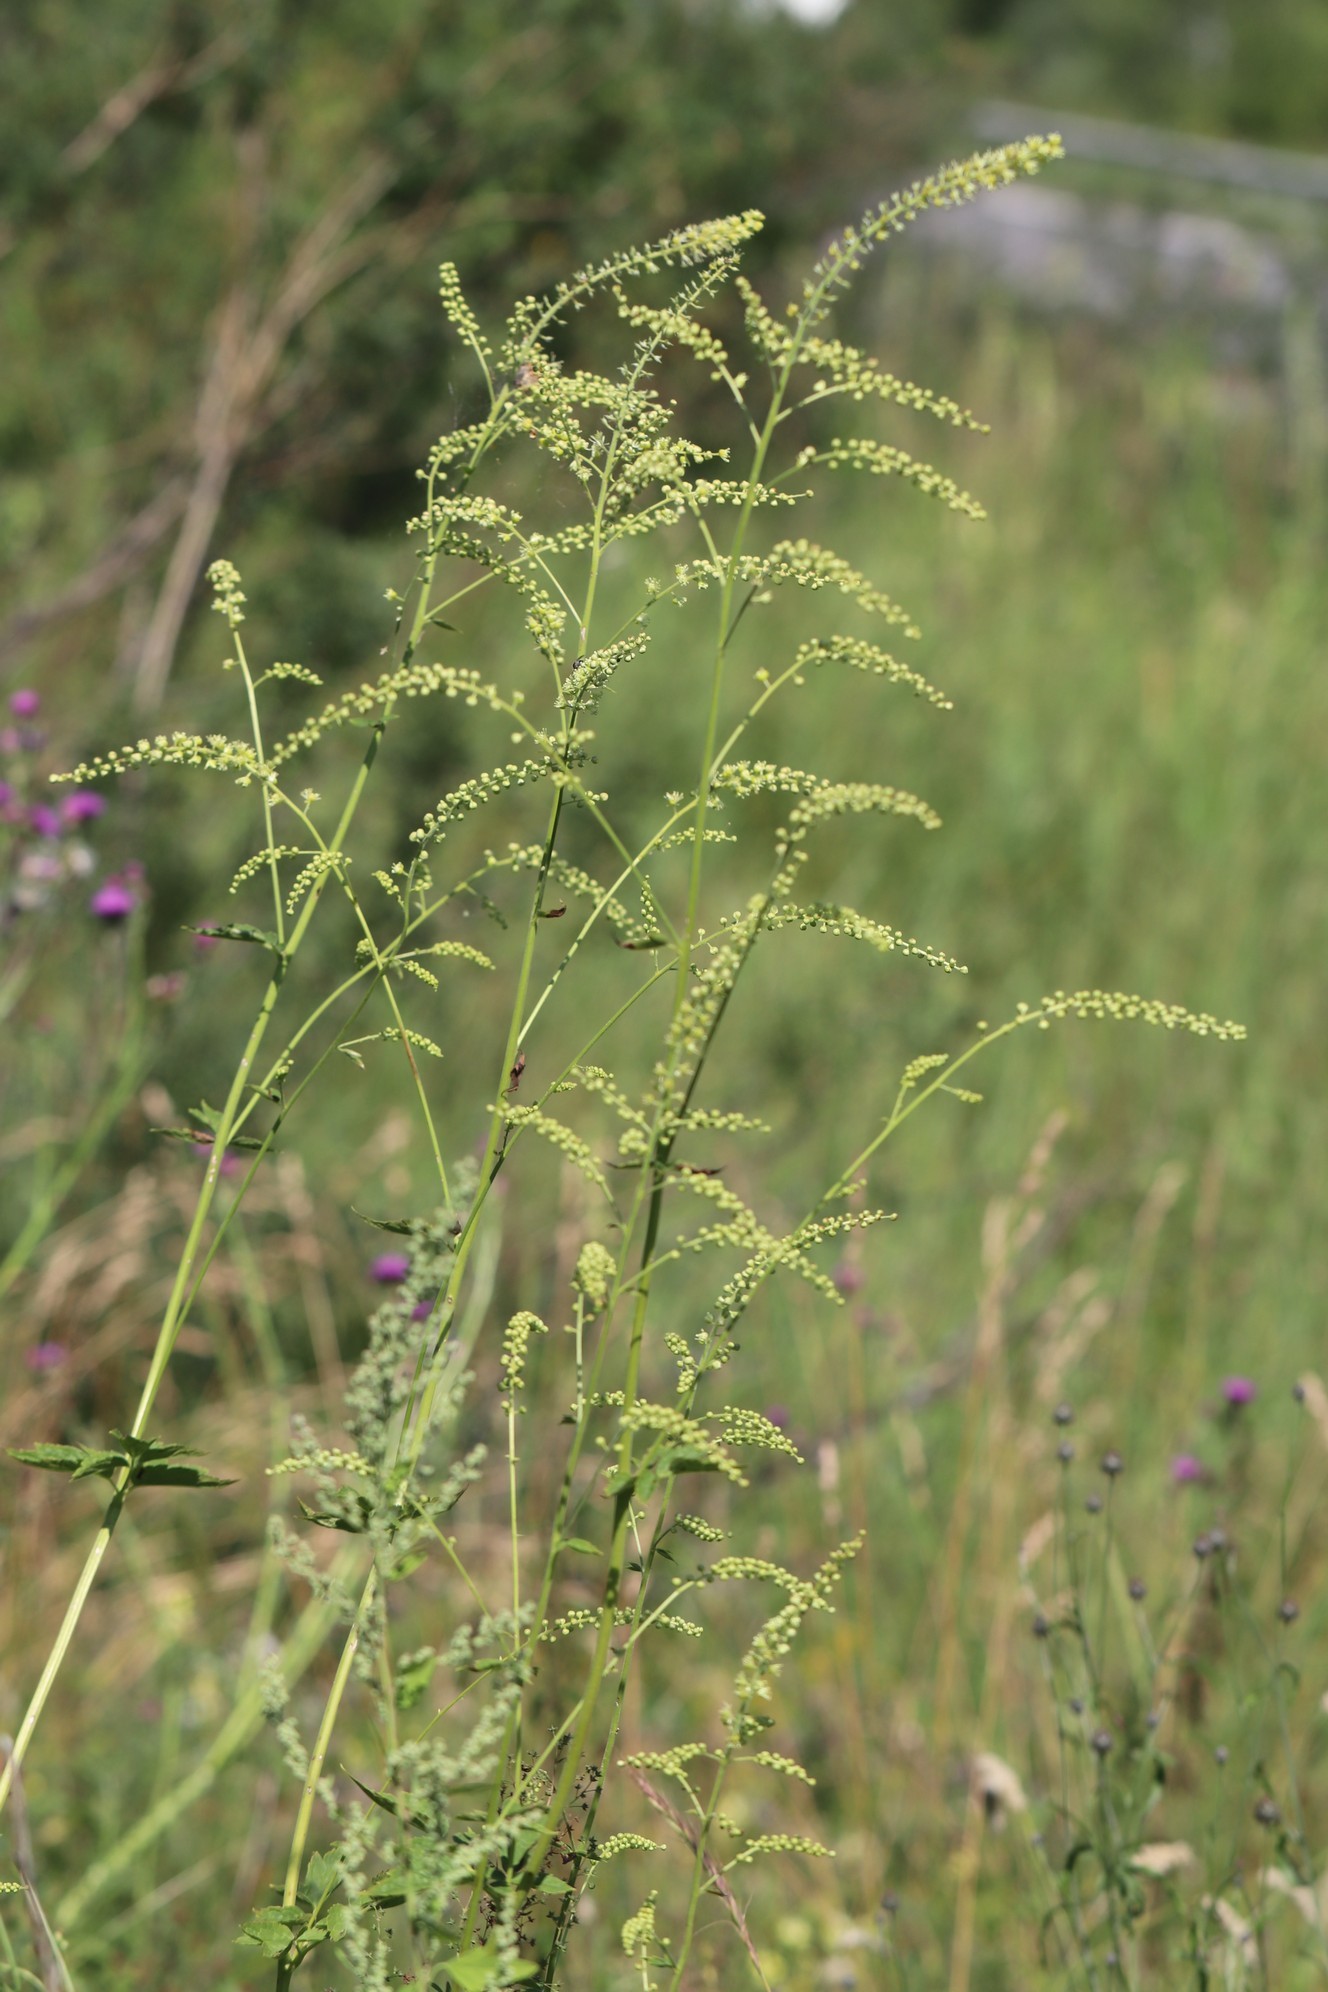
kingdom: Plantae
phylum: Tracheophyta
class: Magnoliopsida
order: Ranunculales
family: Ranunculaceae
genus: Actaea
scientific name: Actaea cimicifuga
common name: Chinese cimicifuga
